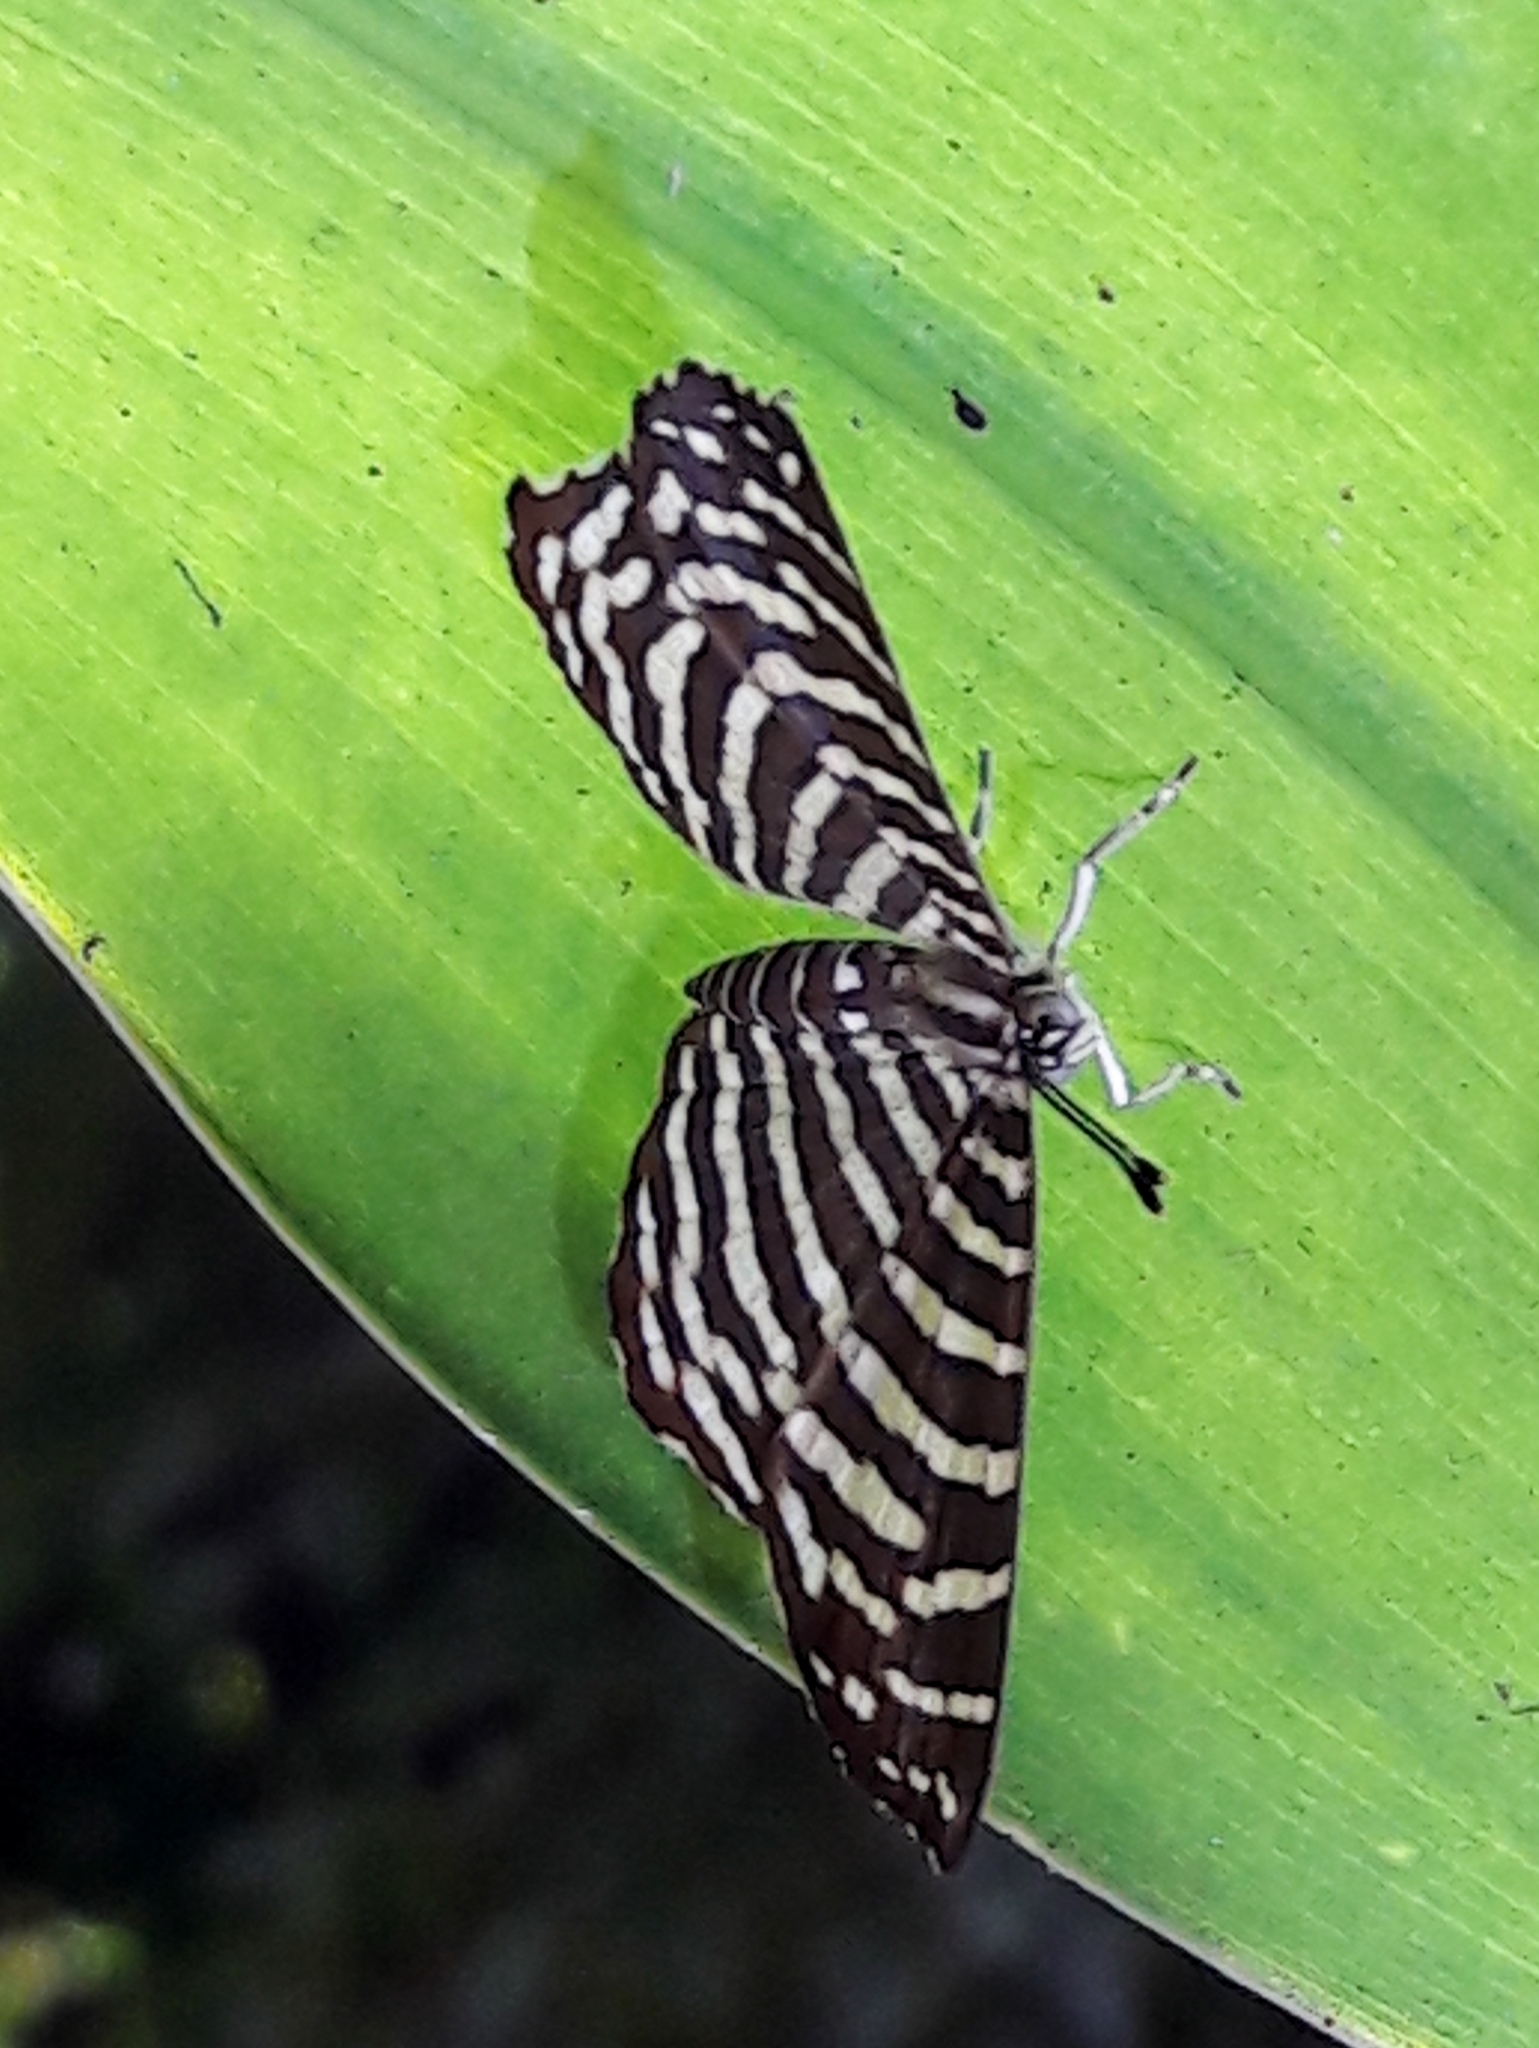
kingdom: Animalia
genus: Hyphilaria
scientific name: Hyphilaria thasus
